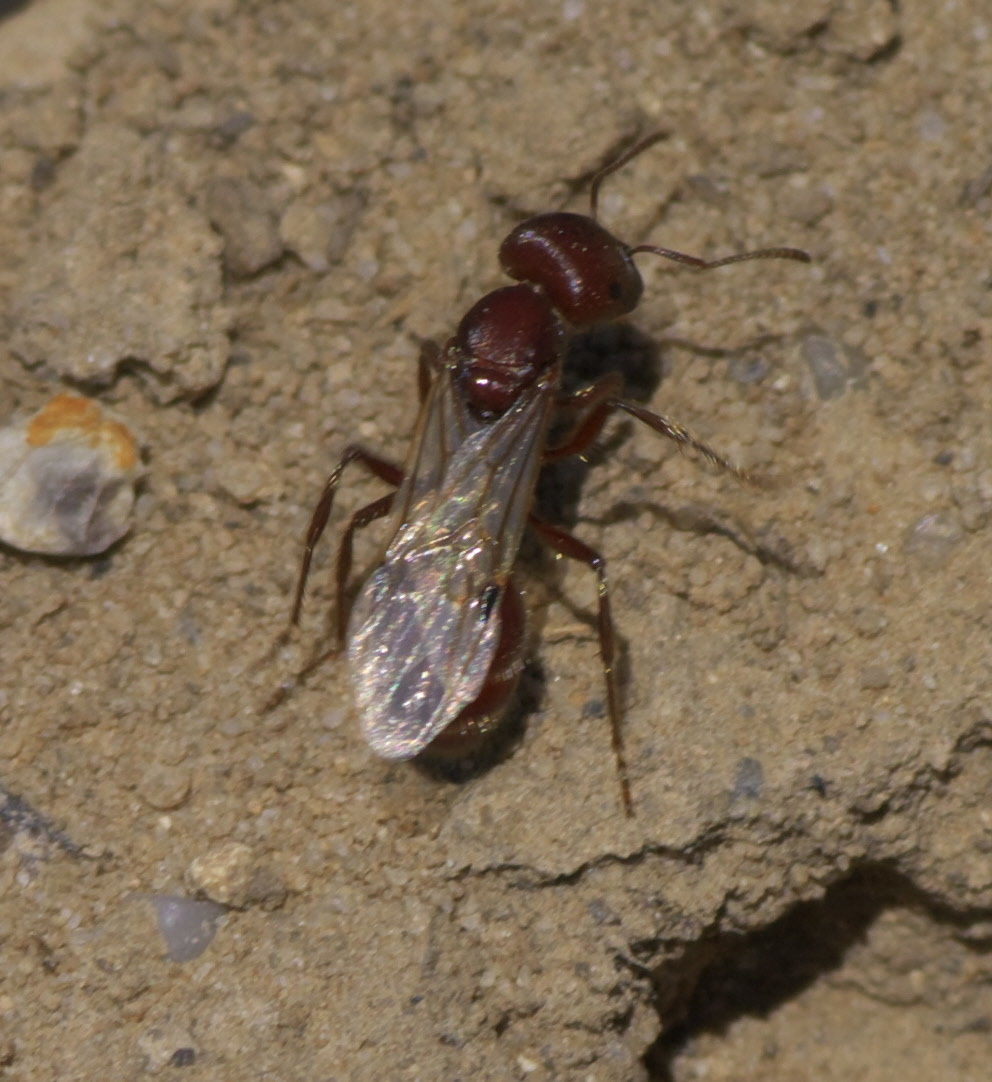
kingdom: Animalia
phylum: Arthropoda
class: Insecta
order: Hymenoptera
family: Formicidae
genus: Pogonomyrmex
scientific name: Pogonomyrmex
